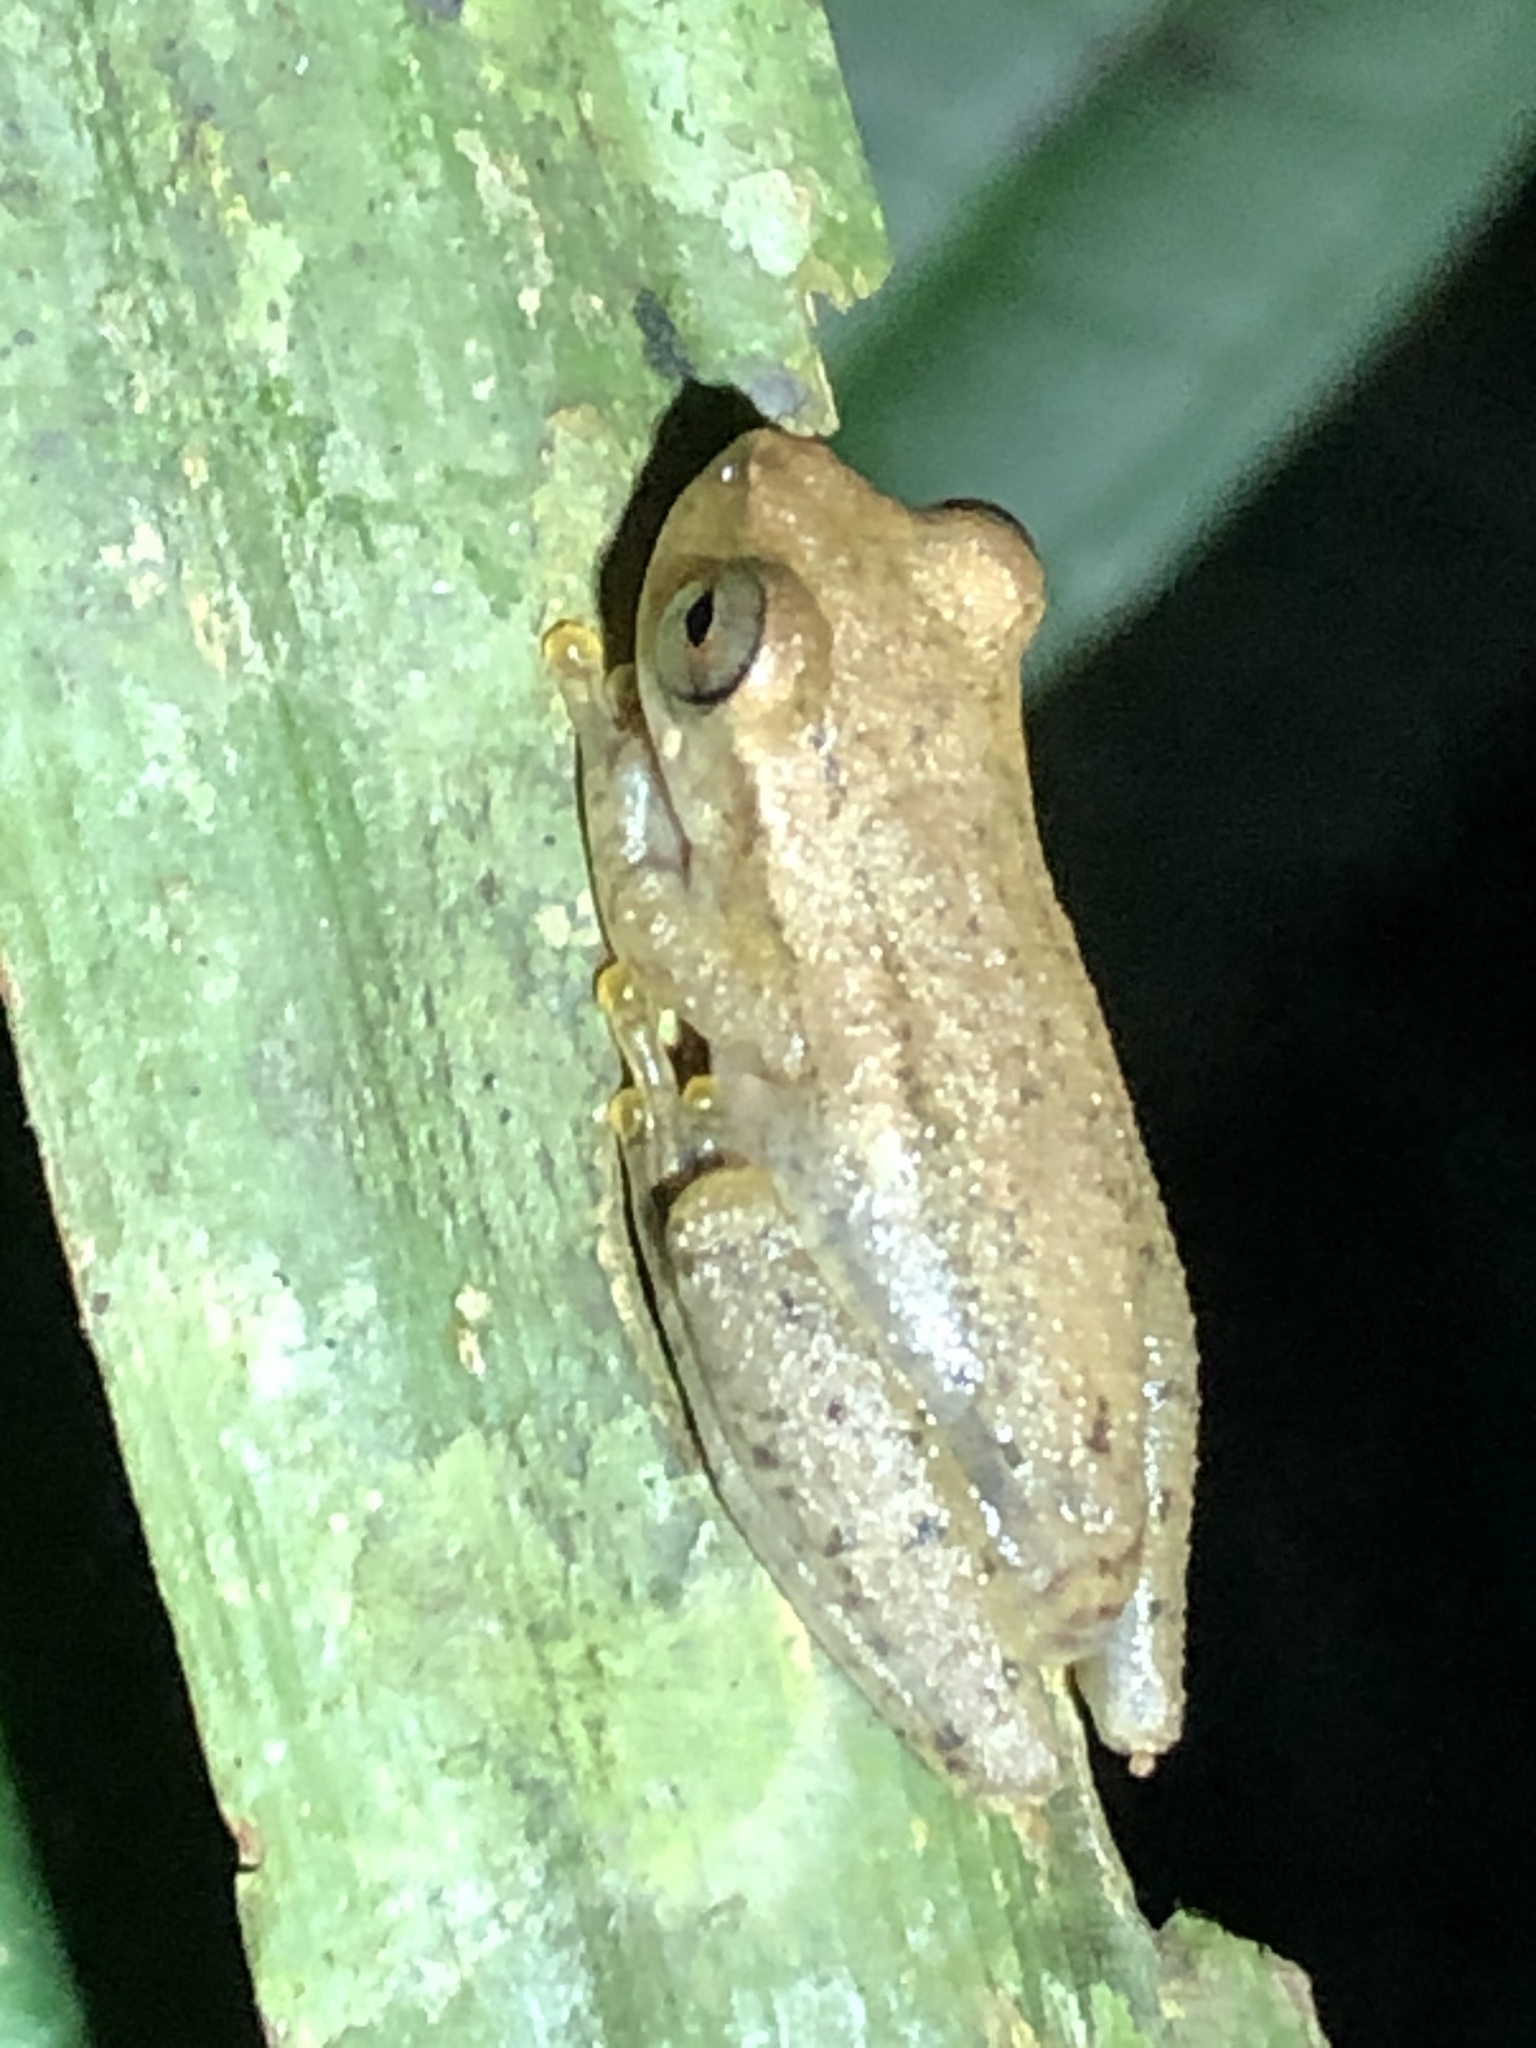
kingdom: Animalia
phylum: Chordata
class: Amphibia
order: Anura
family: Hylidae
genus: Dendropsophus
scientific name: Dendropsophus schubarti
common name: Schubart's rondonia treefrog
